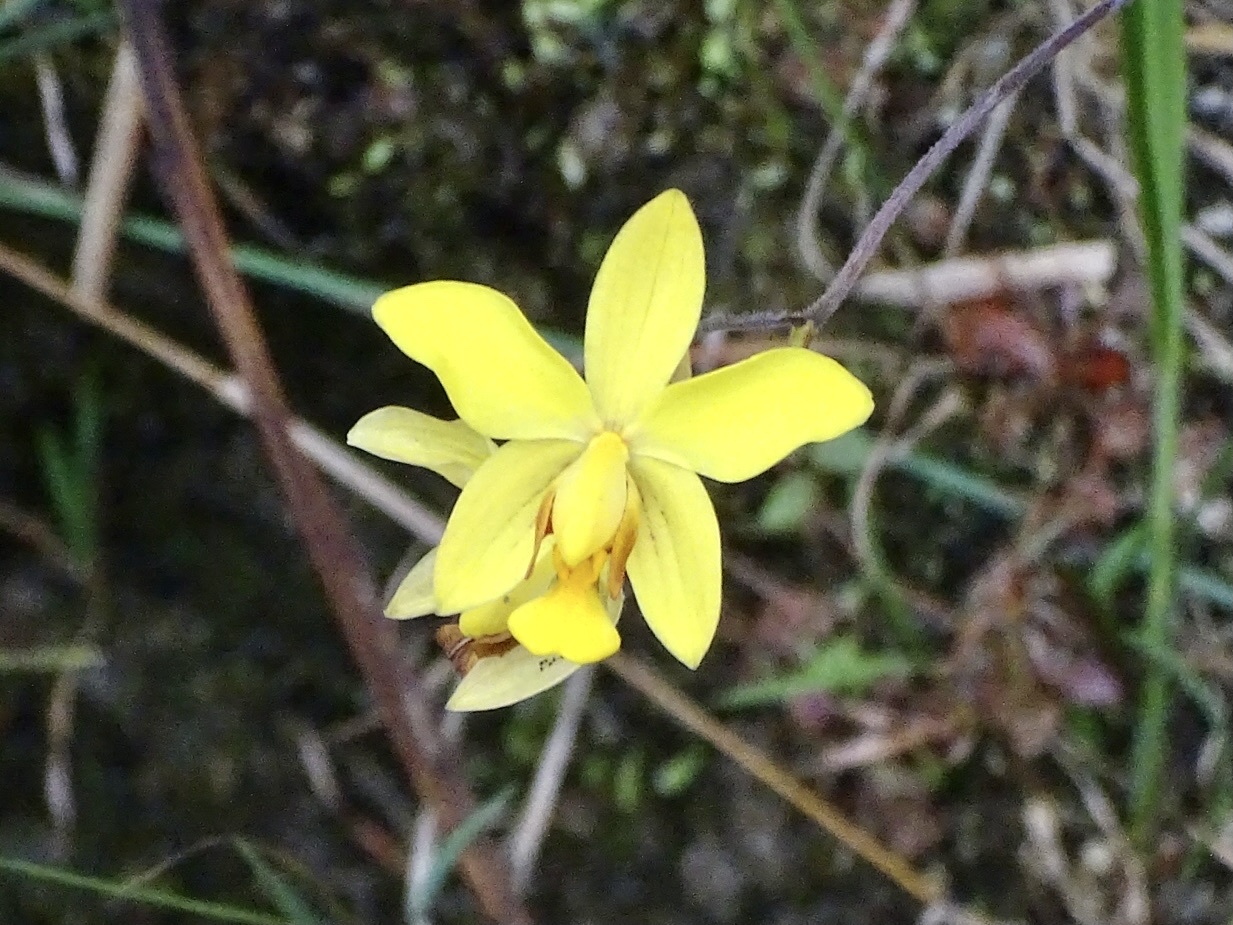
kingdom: Plantae
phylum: Tracheophyta
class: Liliopsida
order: Asparagales
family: Orchidaceae
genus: Spathoglottis
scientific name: Spathoglottis pubescens
